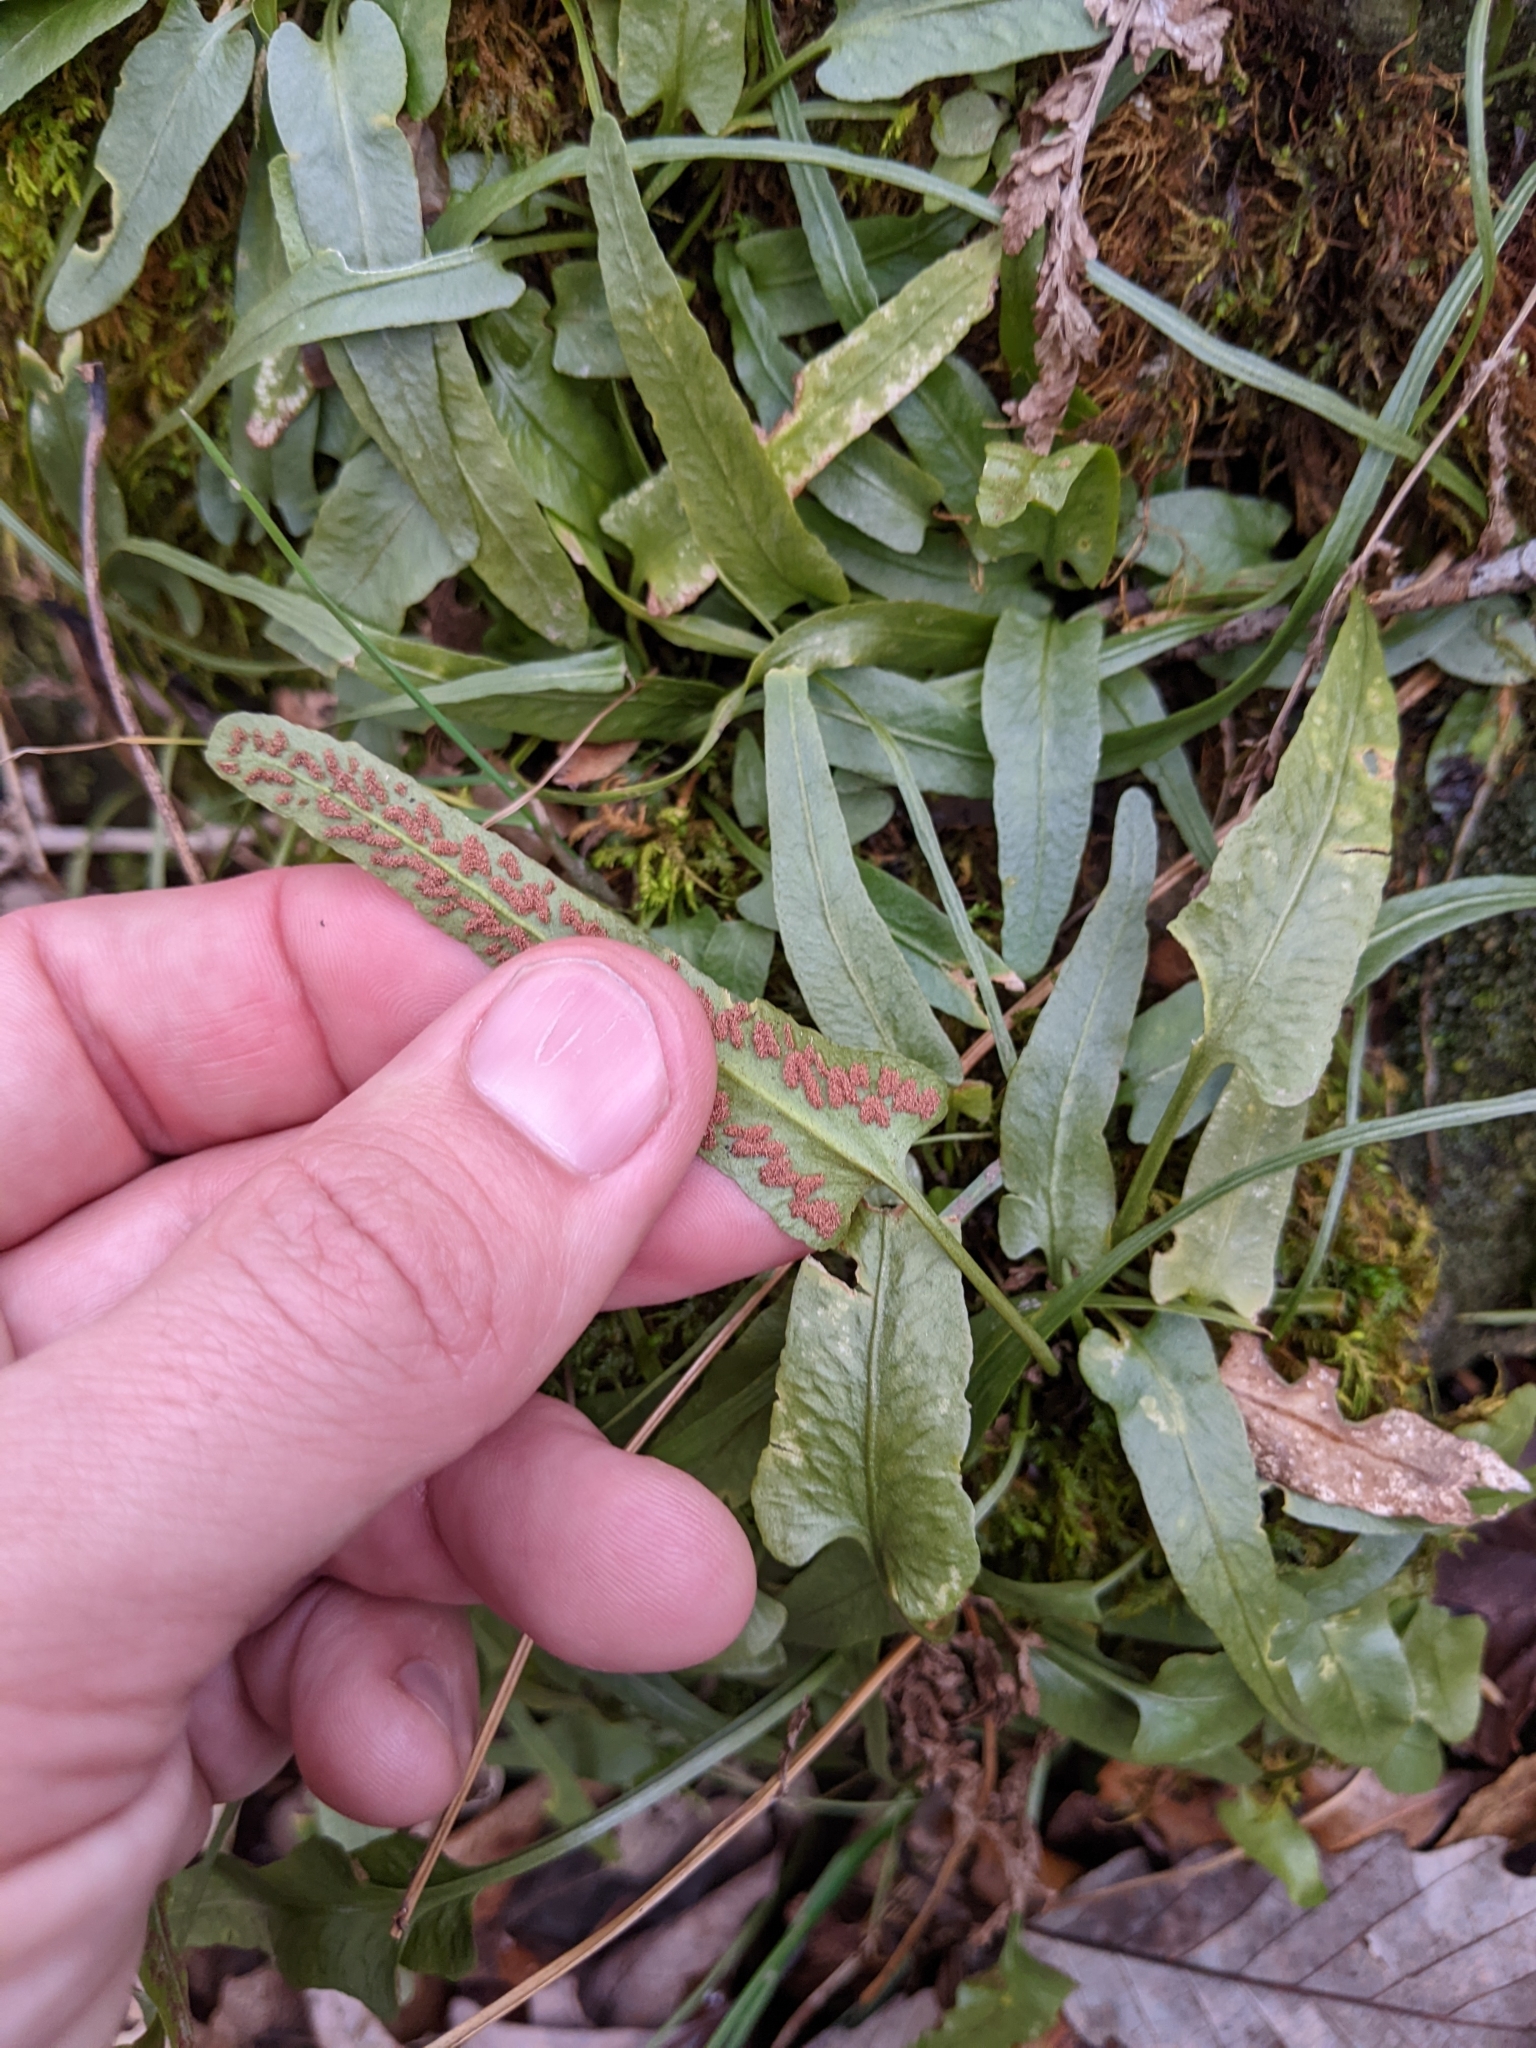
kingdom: Plantae
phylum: Tracheophyta
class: Polypodiopsida
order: Polypodiales
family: Aspleniaceae
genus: Asplenium
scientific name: Asplenium rhizophyllum
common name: Walking fern
